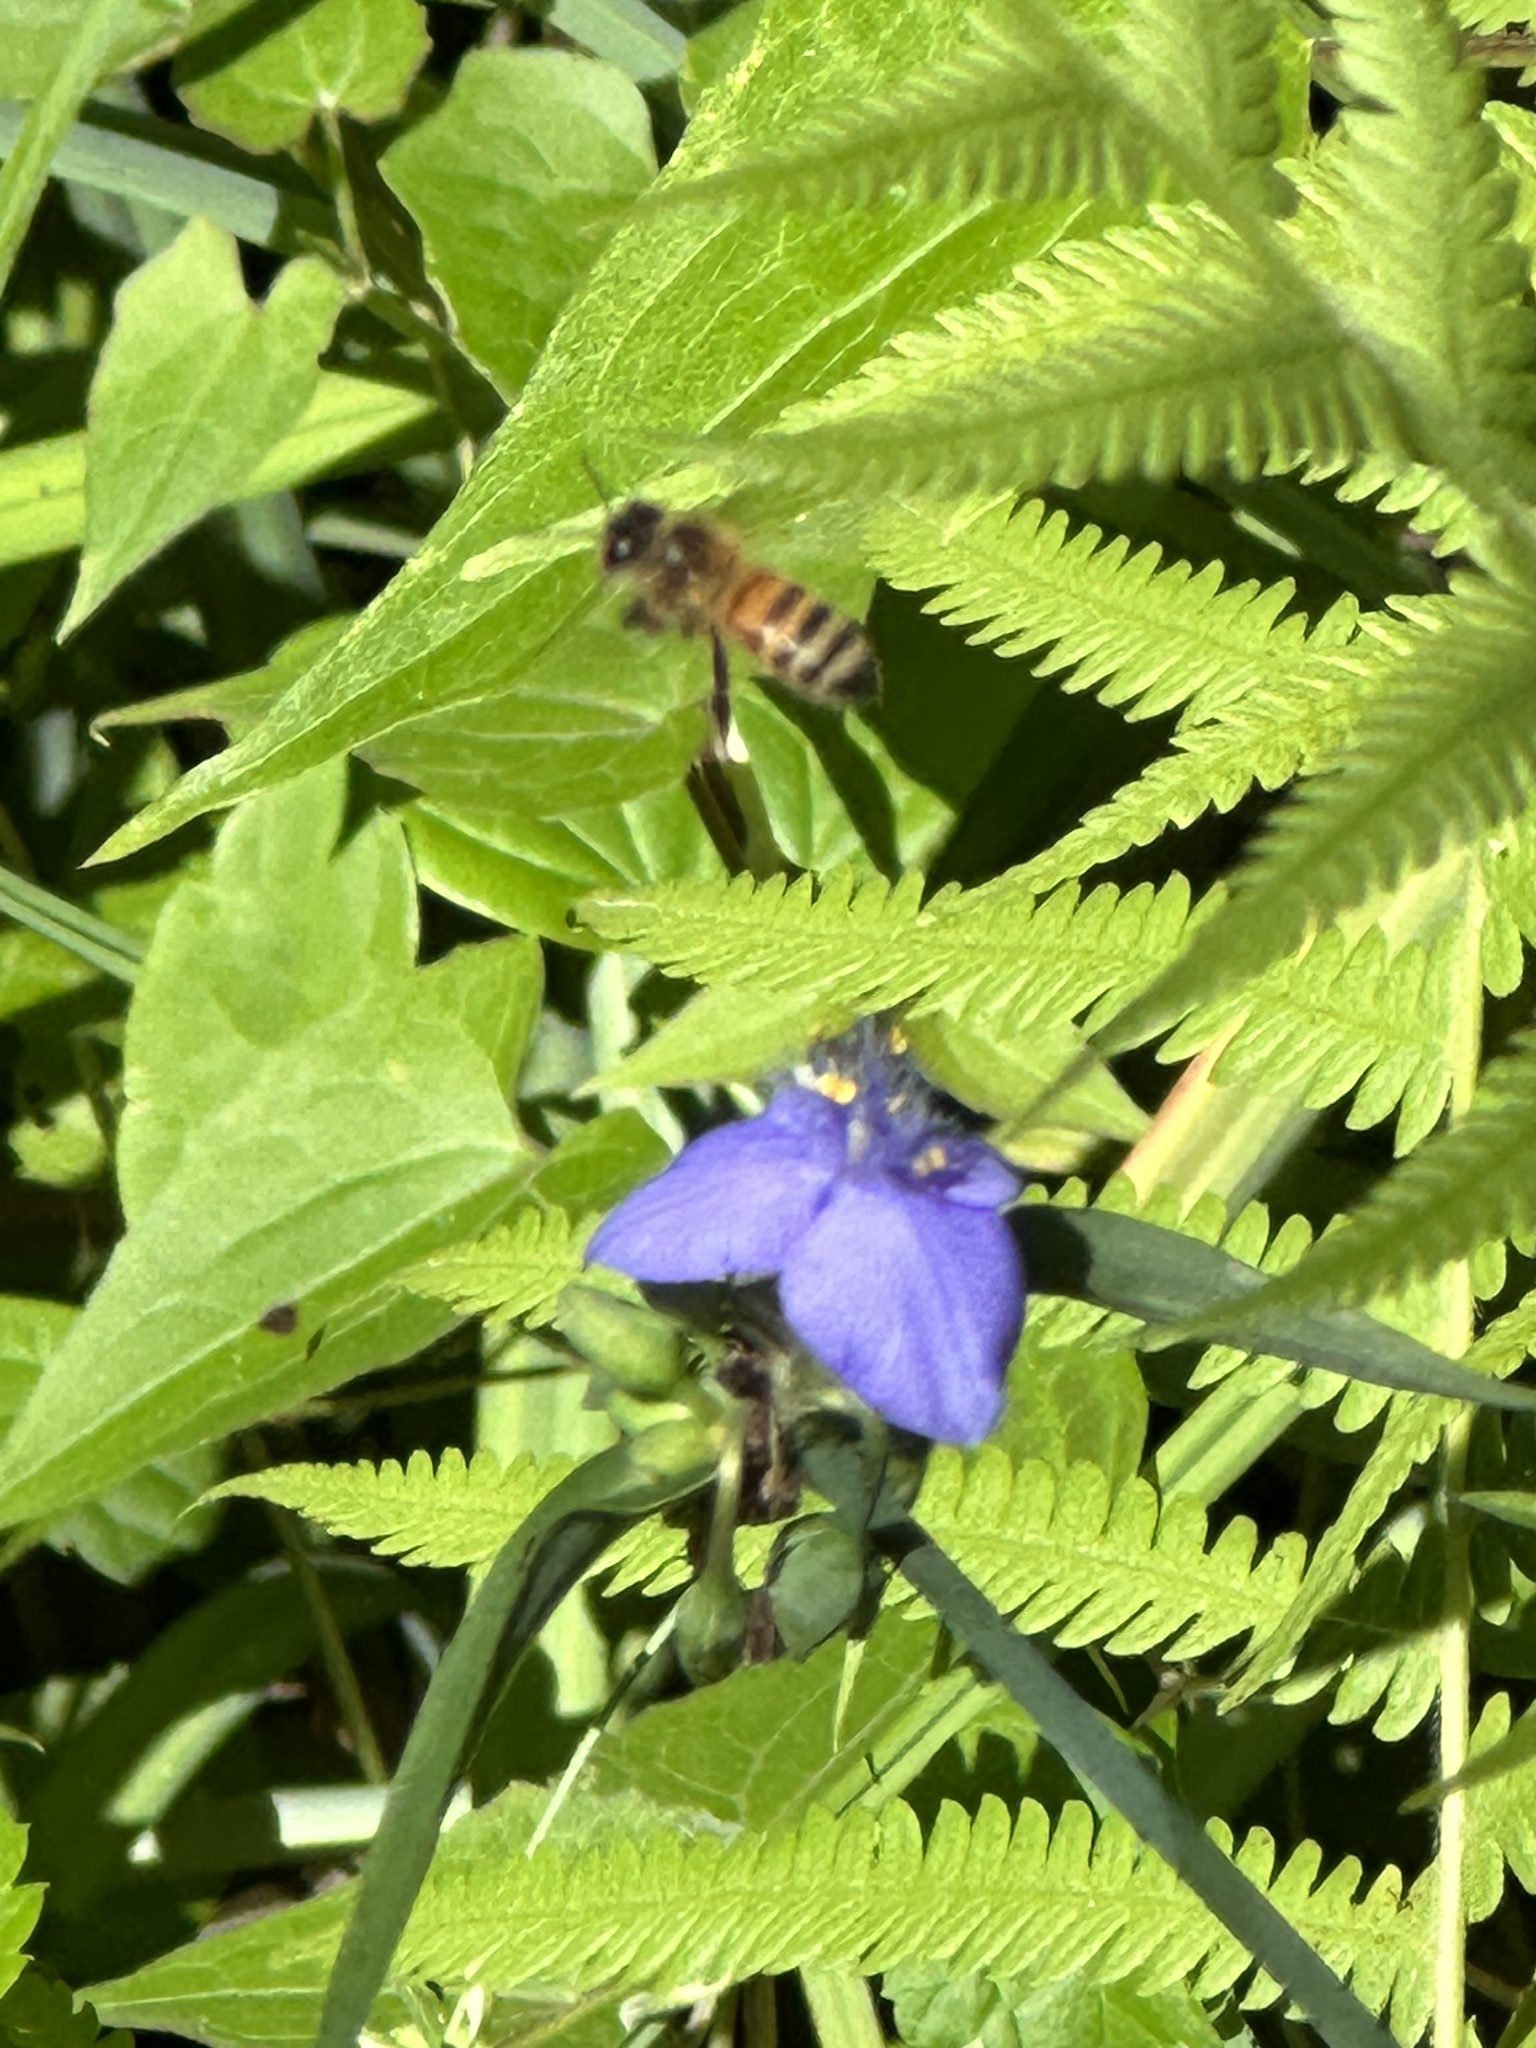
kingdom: Animalia
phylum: Arthropoda
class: Insecta
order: Hymenoptera
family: Apidae
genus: Apis
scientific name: Apis mellifera
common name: Honey bee
